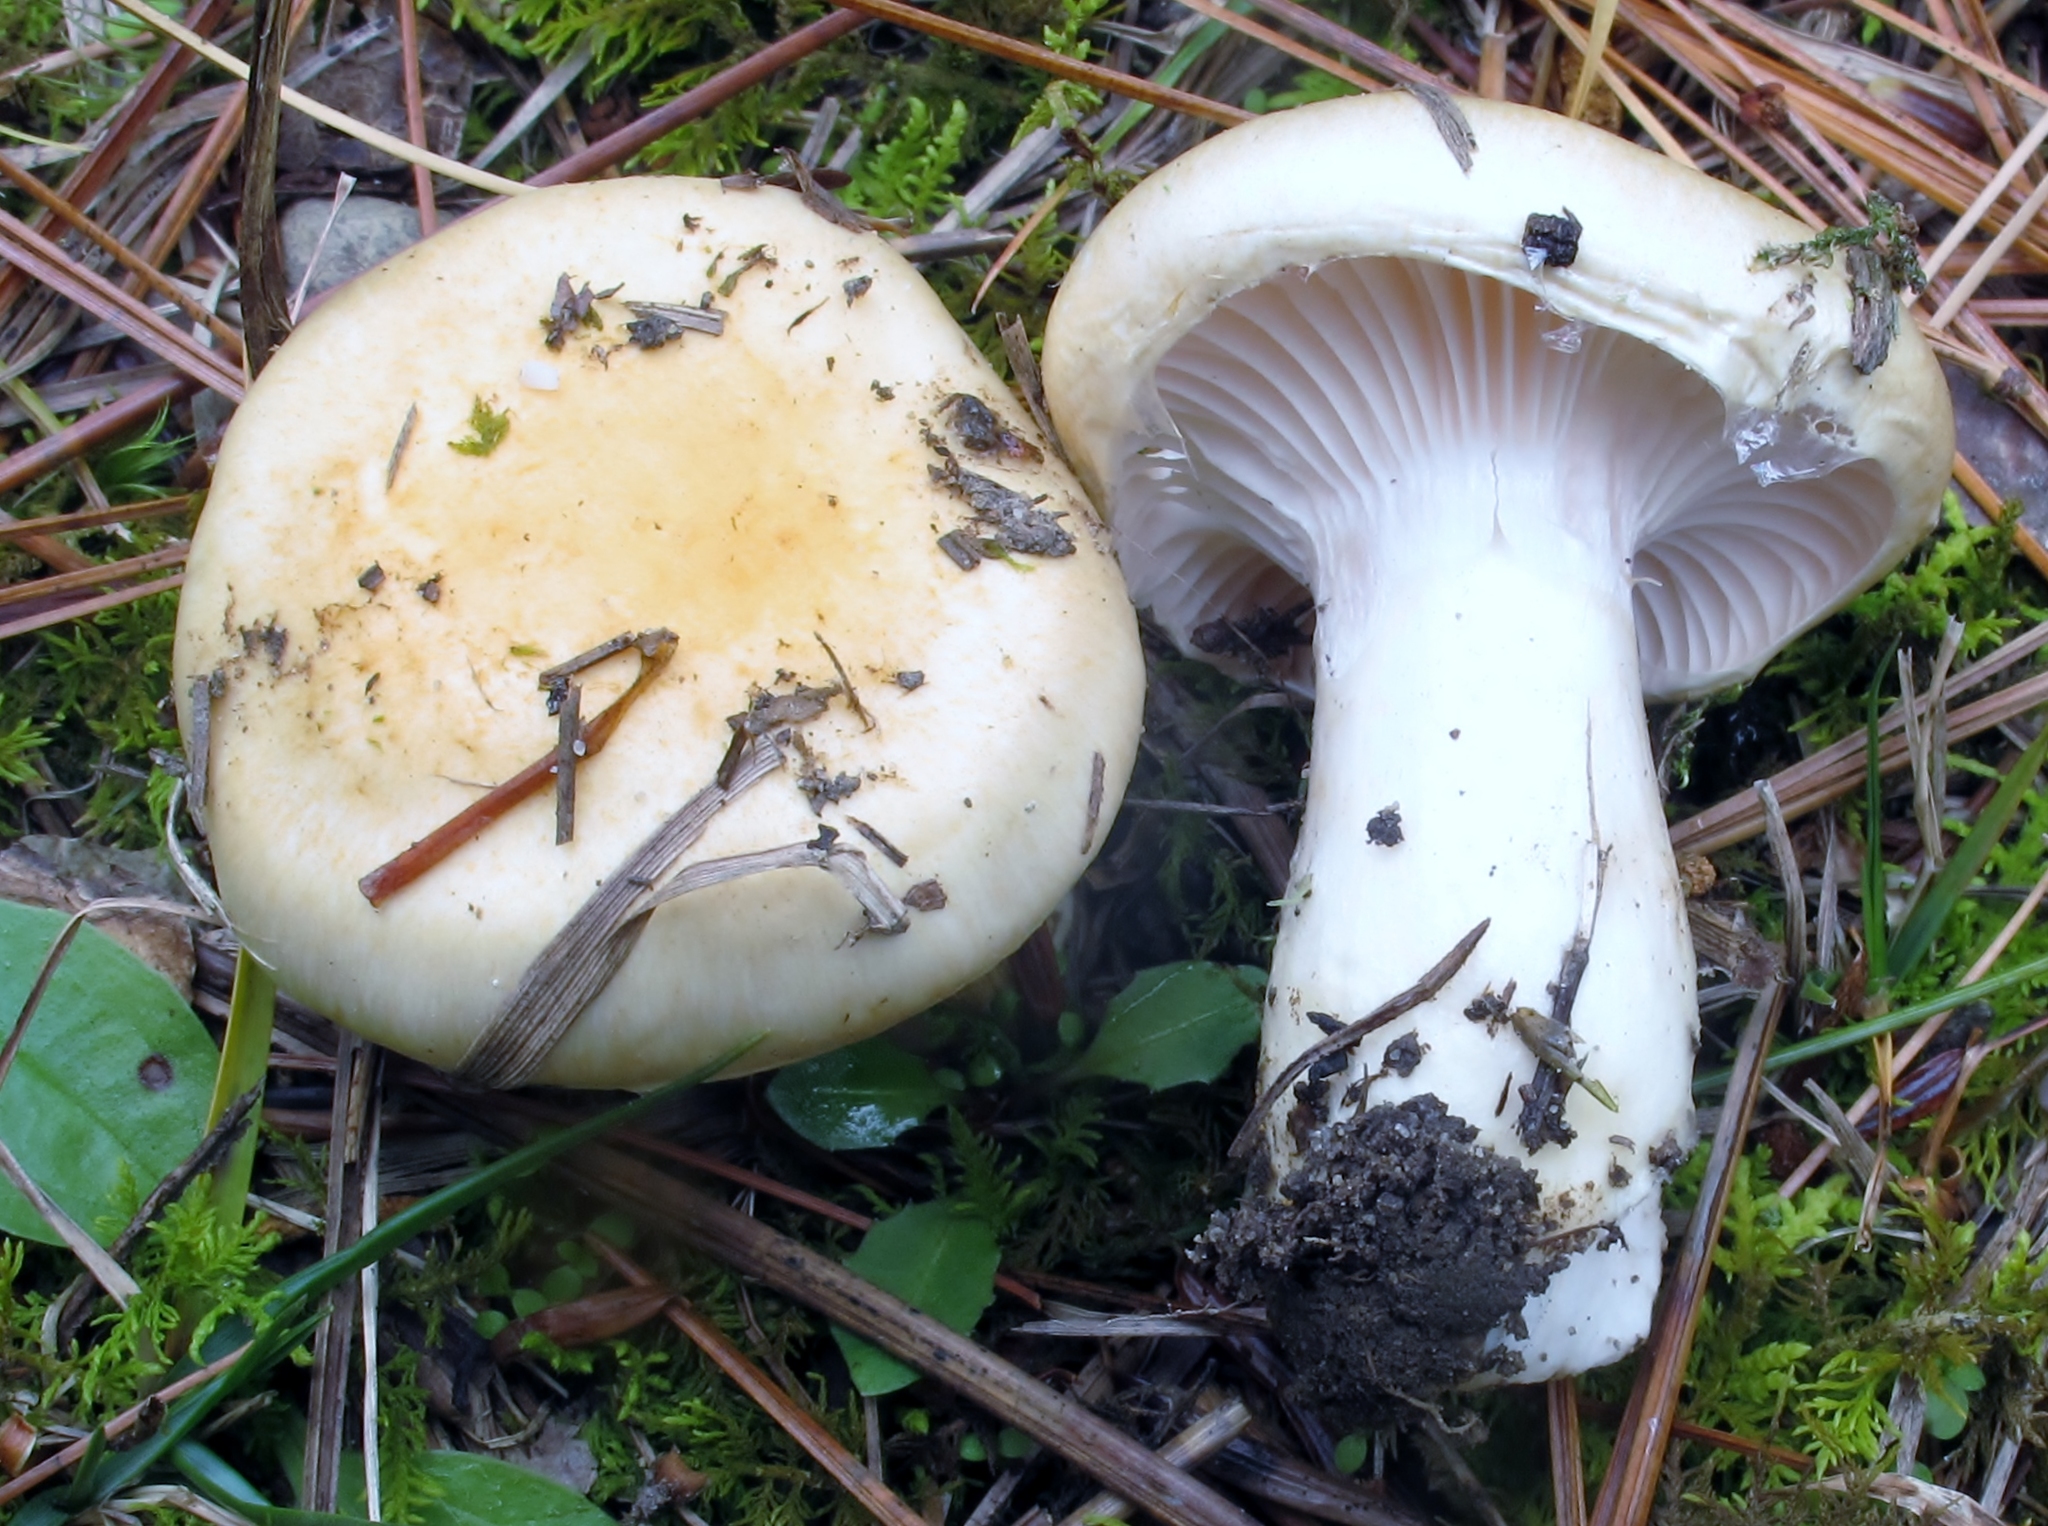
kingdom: Fungi
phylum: Basidiomycota
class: Agaricomycetes
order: Agaricales
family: Hygrophoraceae
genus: Hygrophorus
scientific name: Hygrophorus ligatus
